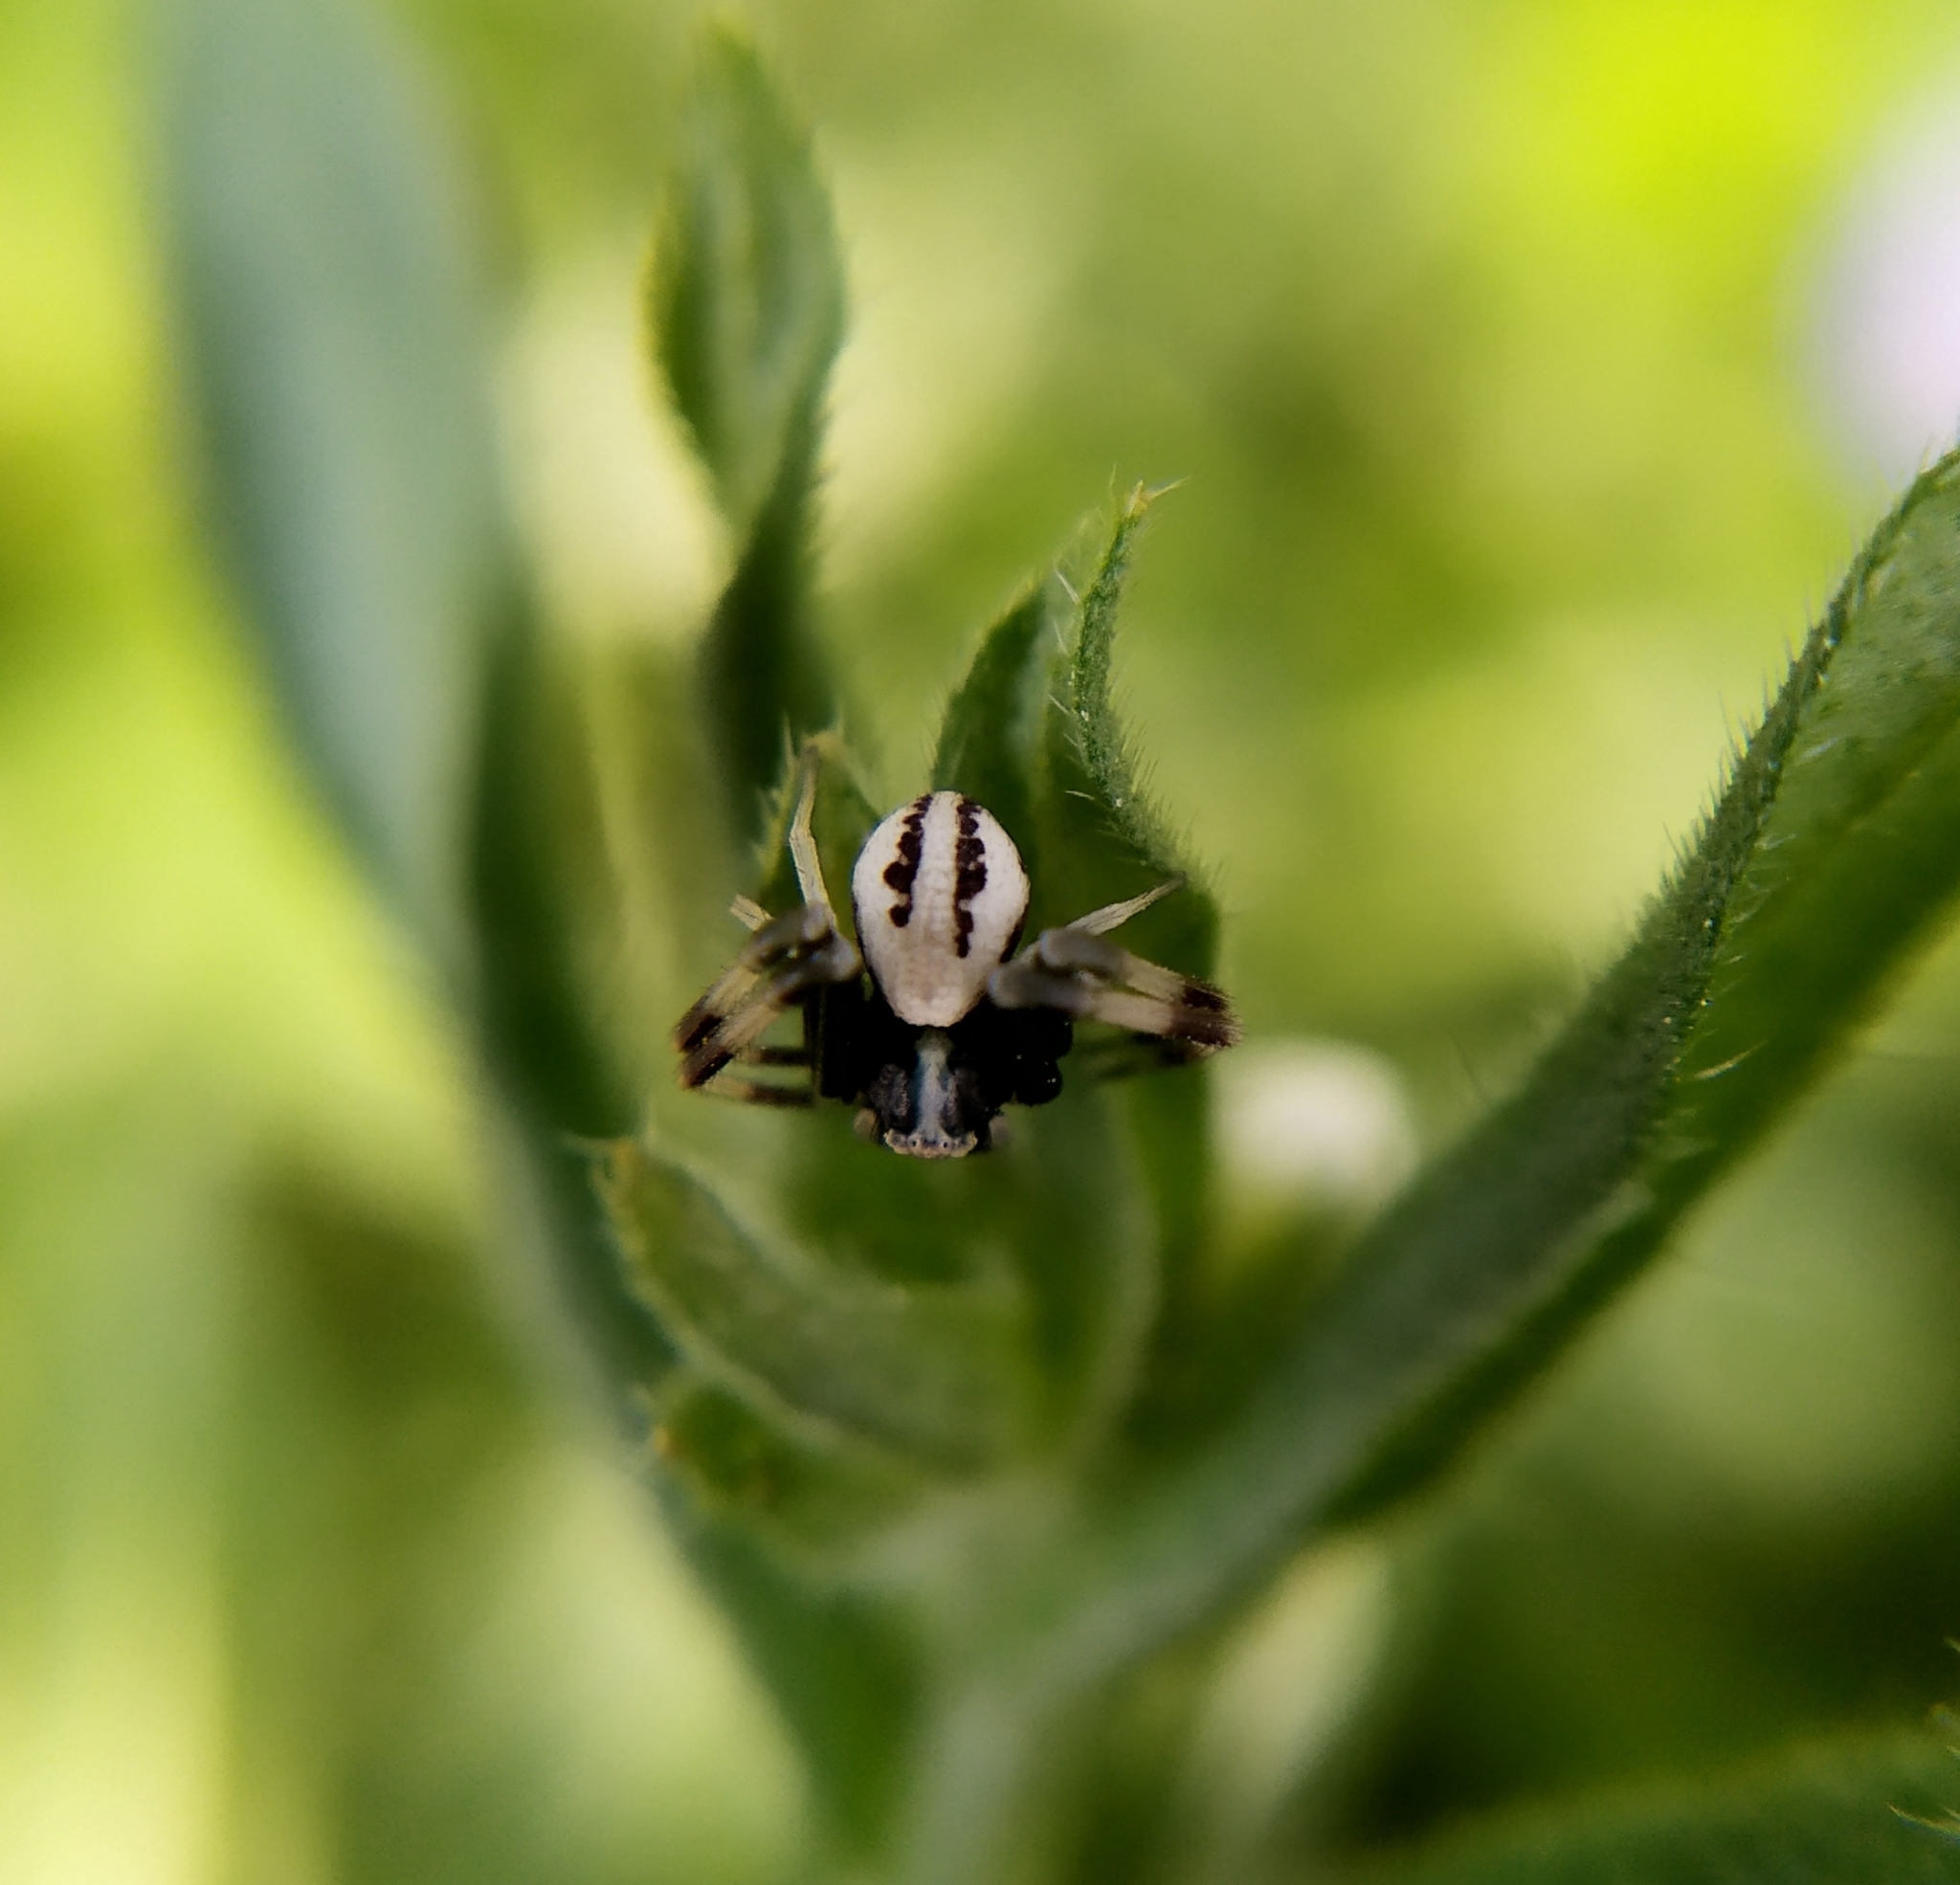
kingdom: Animalia
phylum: Arthropoda
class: Arachnida
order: Araneae
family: Thomisidae
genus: Misumena
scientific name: Misumena vatia
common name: Goldenrod crab spider
